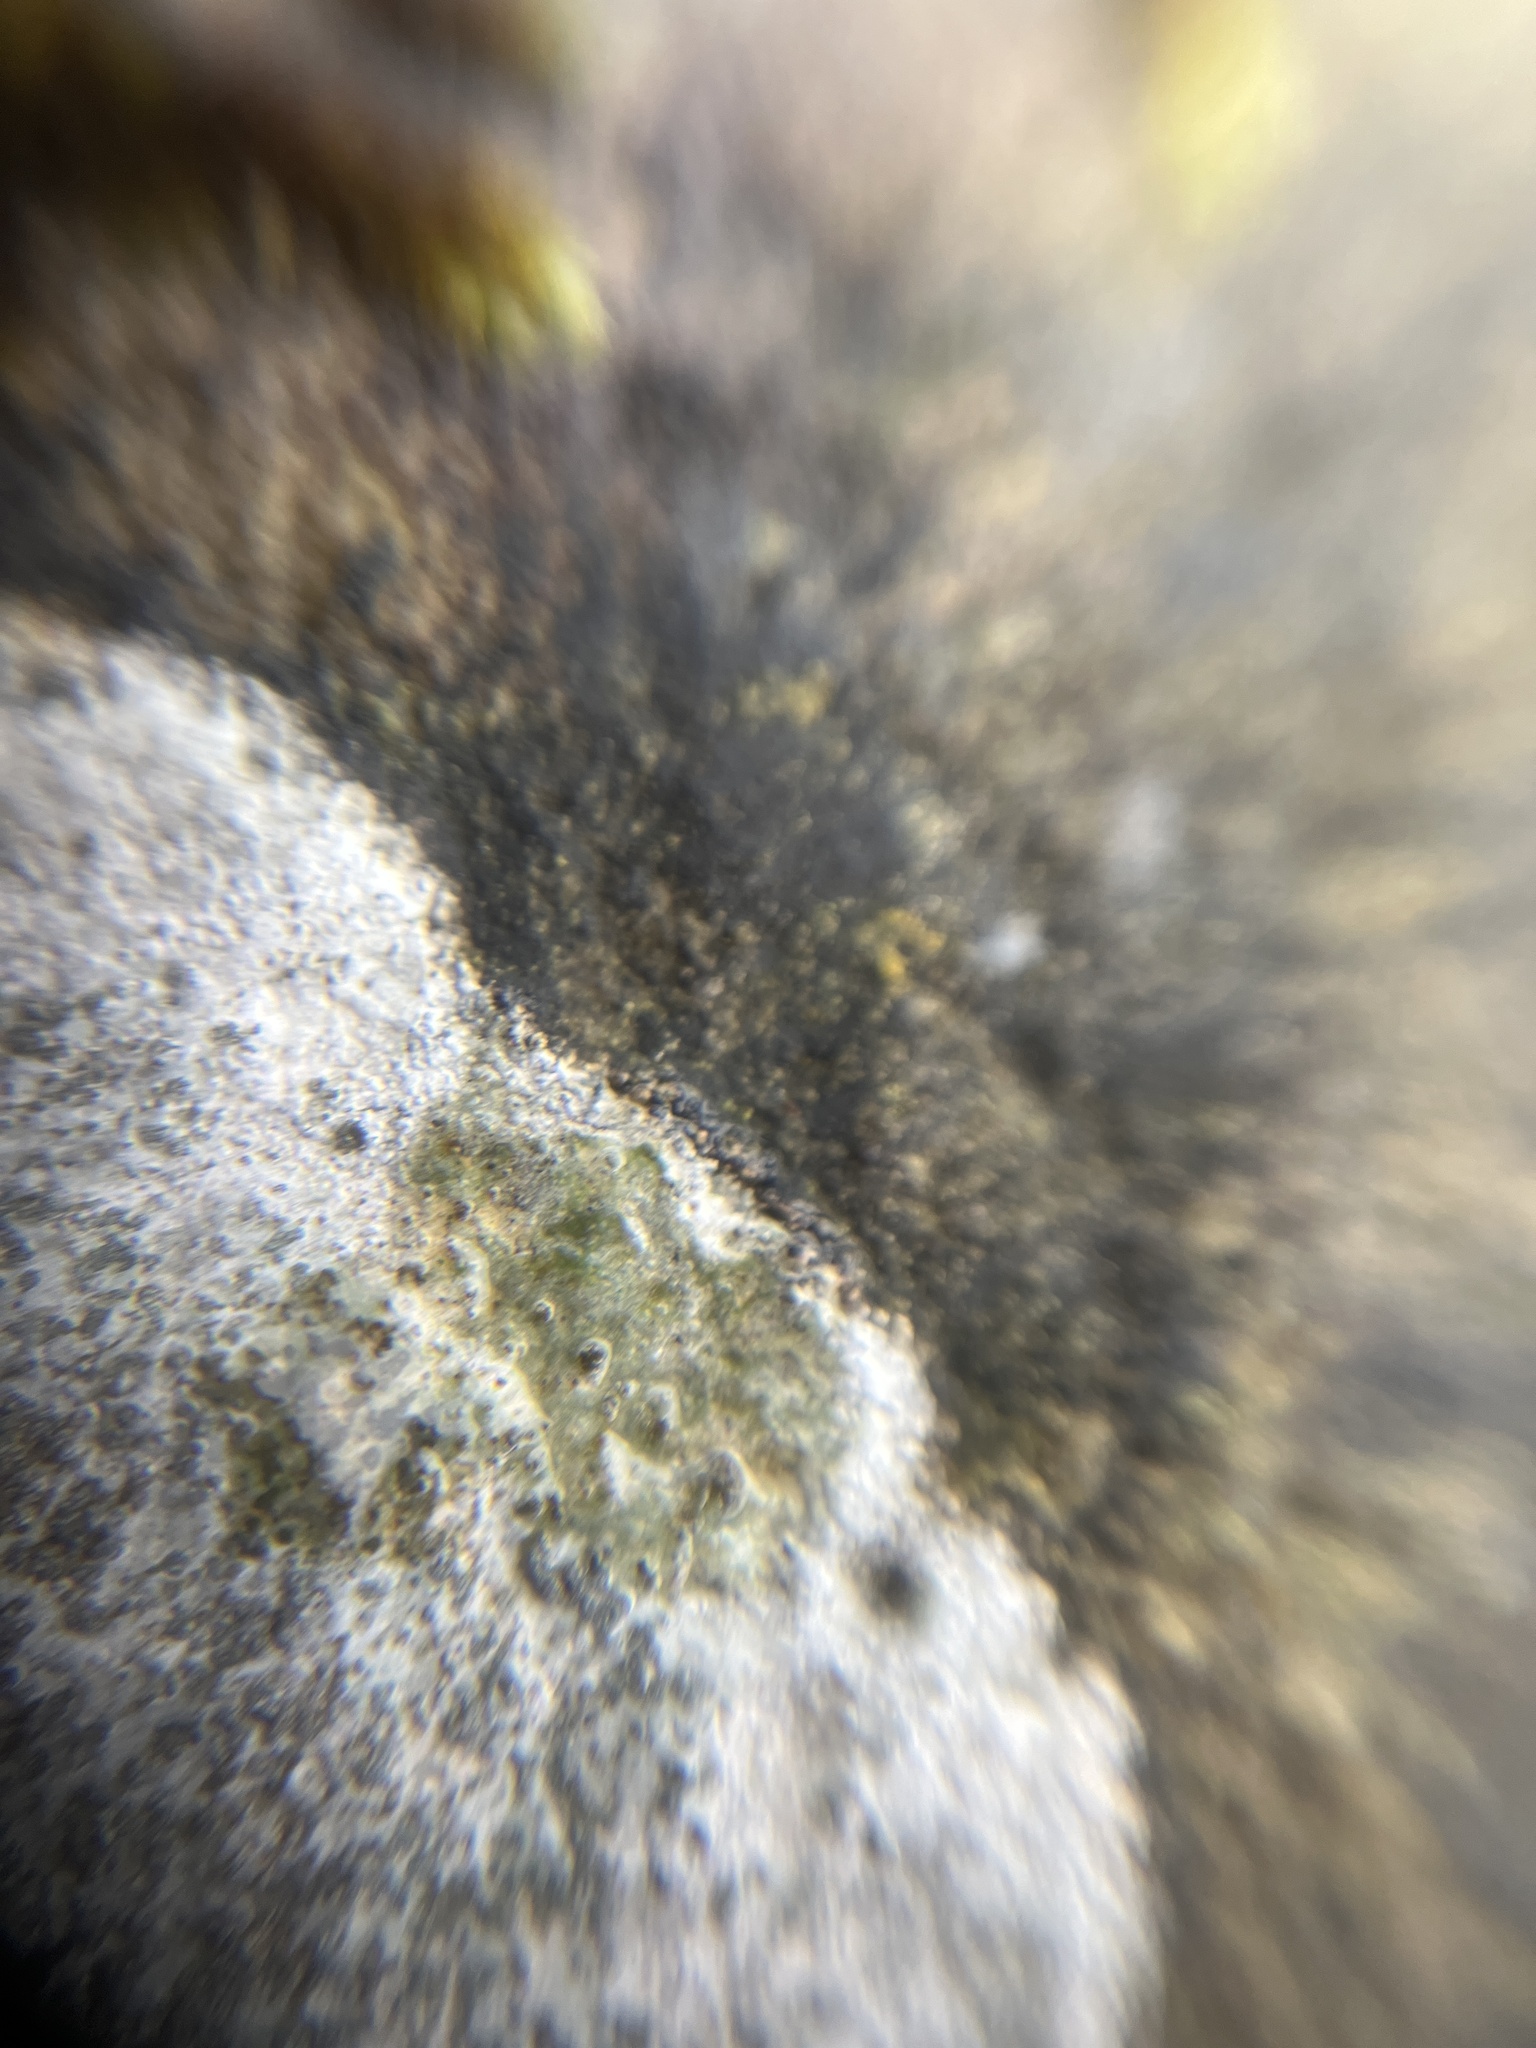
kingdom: Fungi
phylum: Ascomycota
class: Lecanoromycetes
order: Lecideales
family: Lecideaceae
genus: Porpidia
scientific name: Porpidia tuberculosa
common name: Boulder lichen
